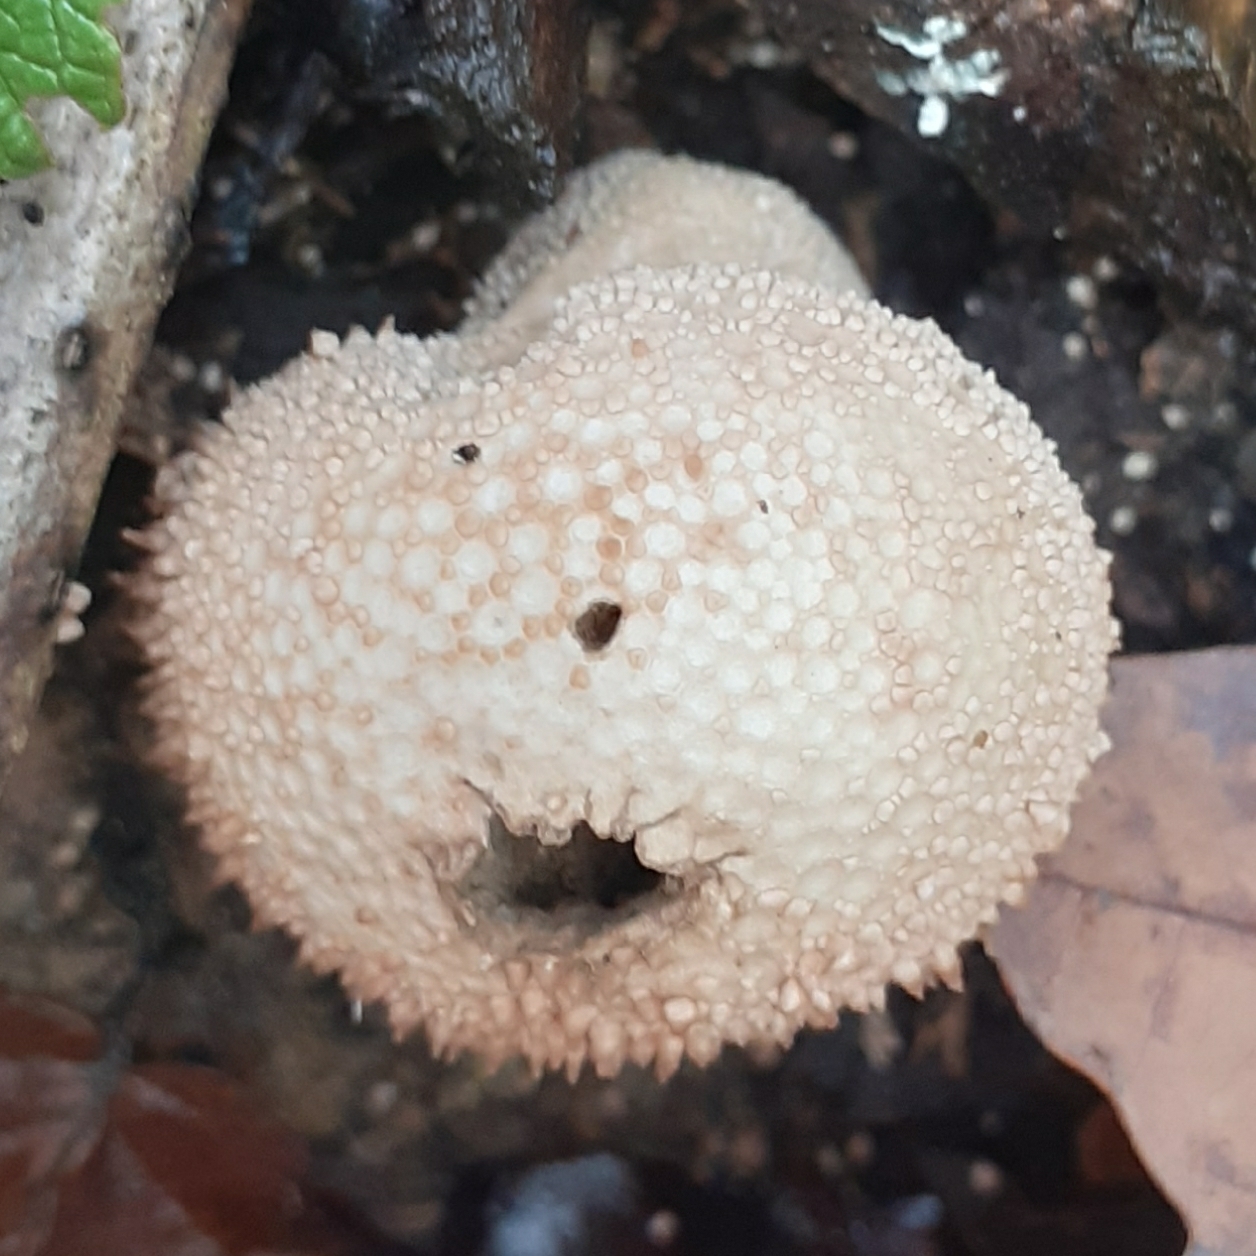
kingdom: Fungi
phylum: Basidiomycota
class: Agaricomycetes
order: Agaricales
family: Lycoperdaceae
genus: Lycoperdon
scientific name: Lycoperdon perlatum
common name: Common puffball
